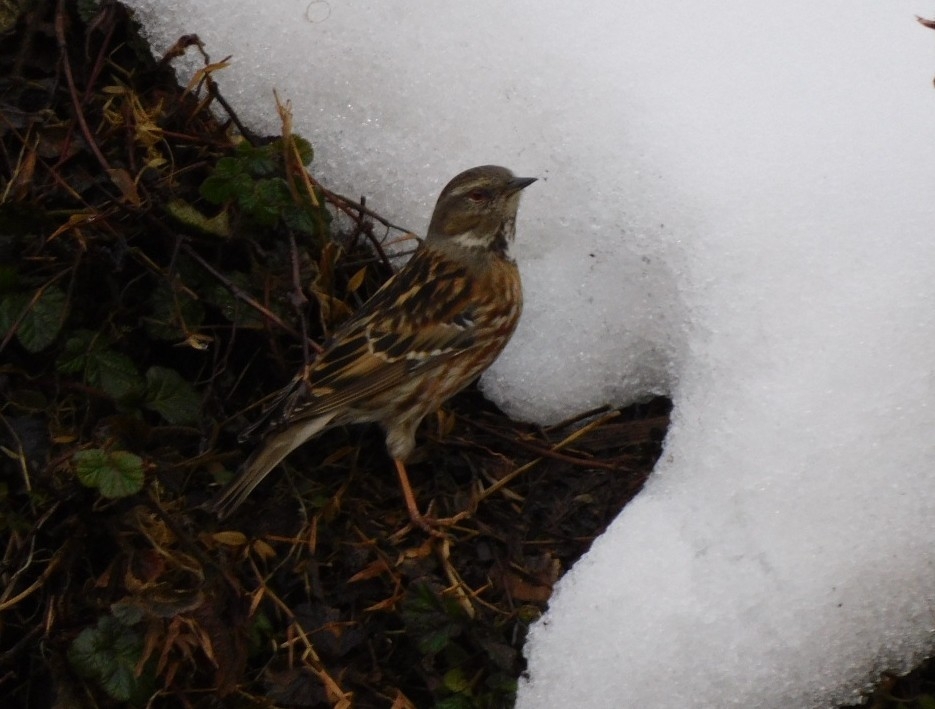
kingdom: Animalia
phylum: Chordata
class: Aves
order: Passeriformes
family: Prunellidae
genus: Prunella
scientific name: Prunella collaris
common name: Alpine accentor
